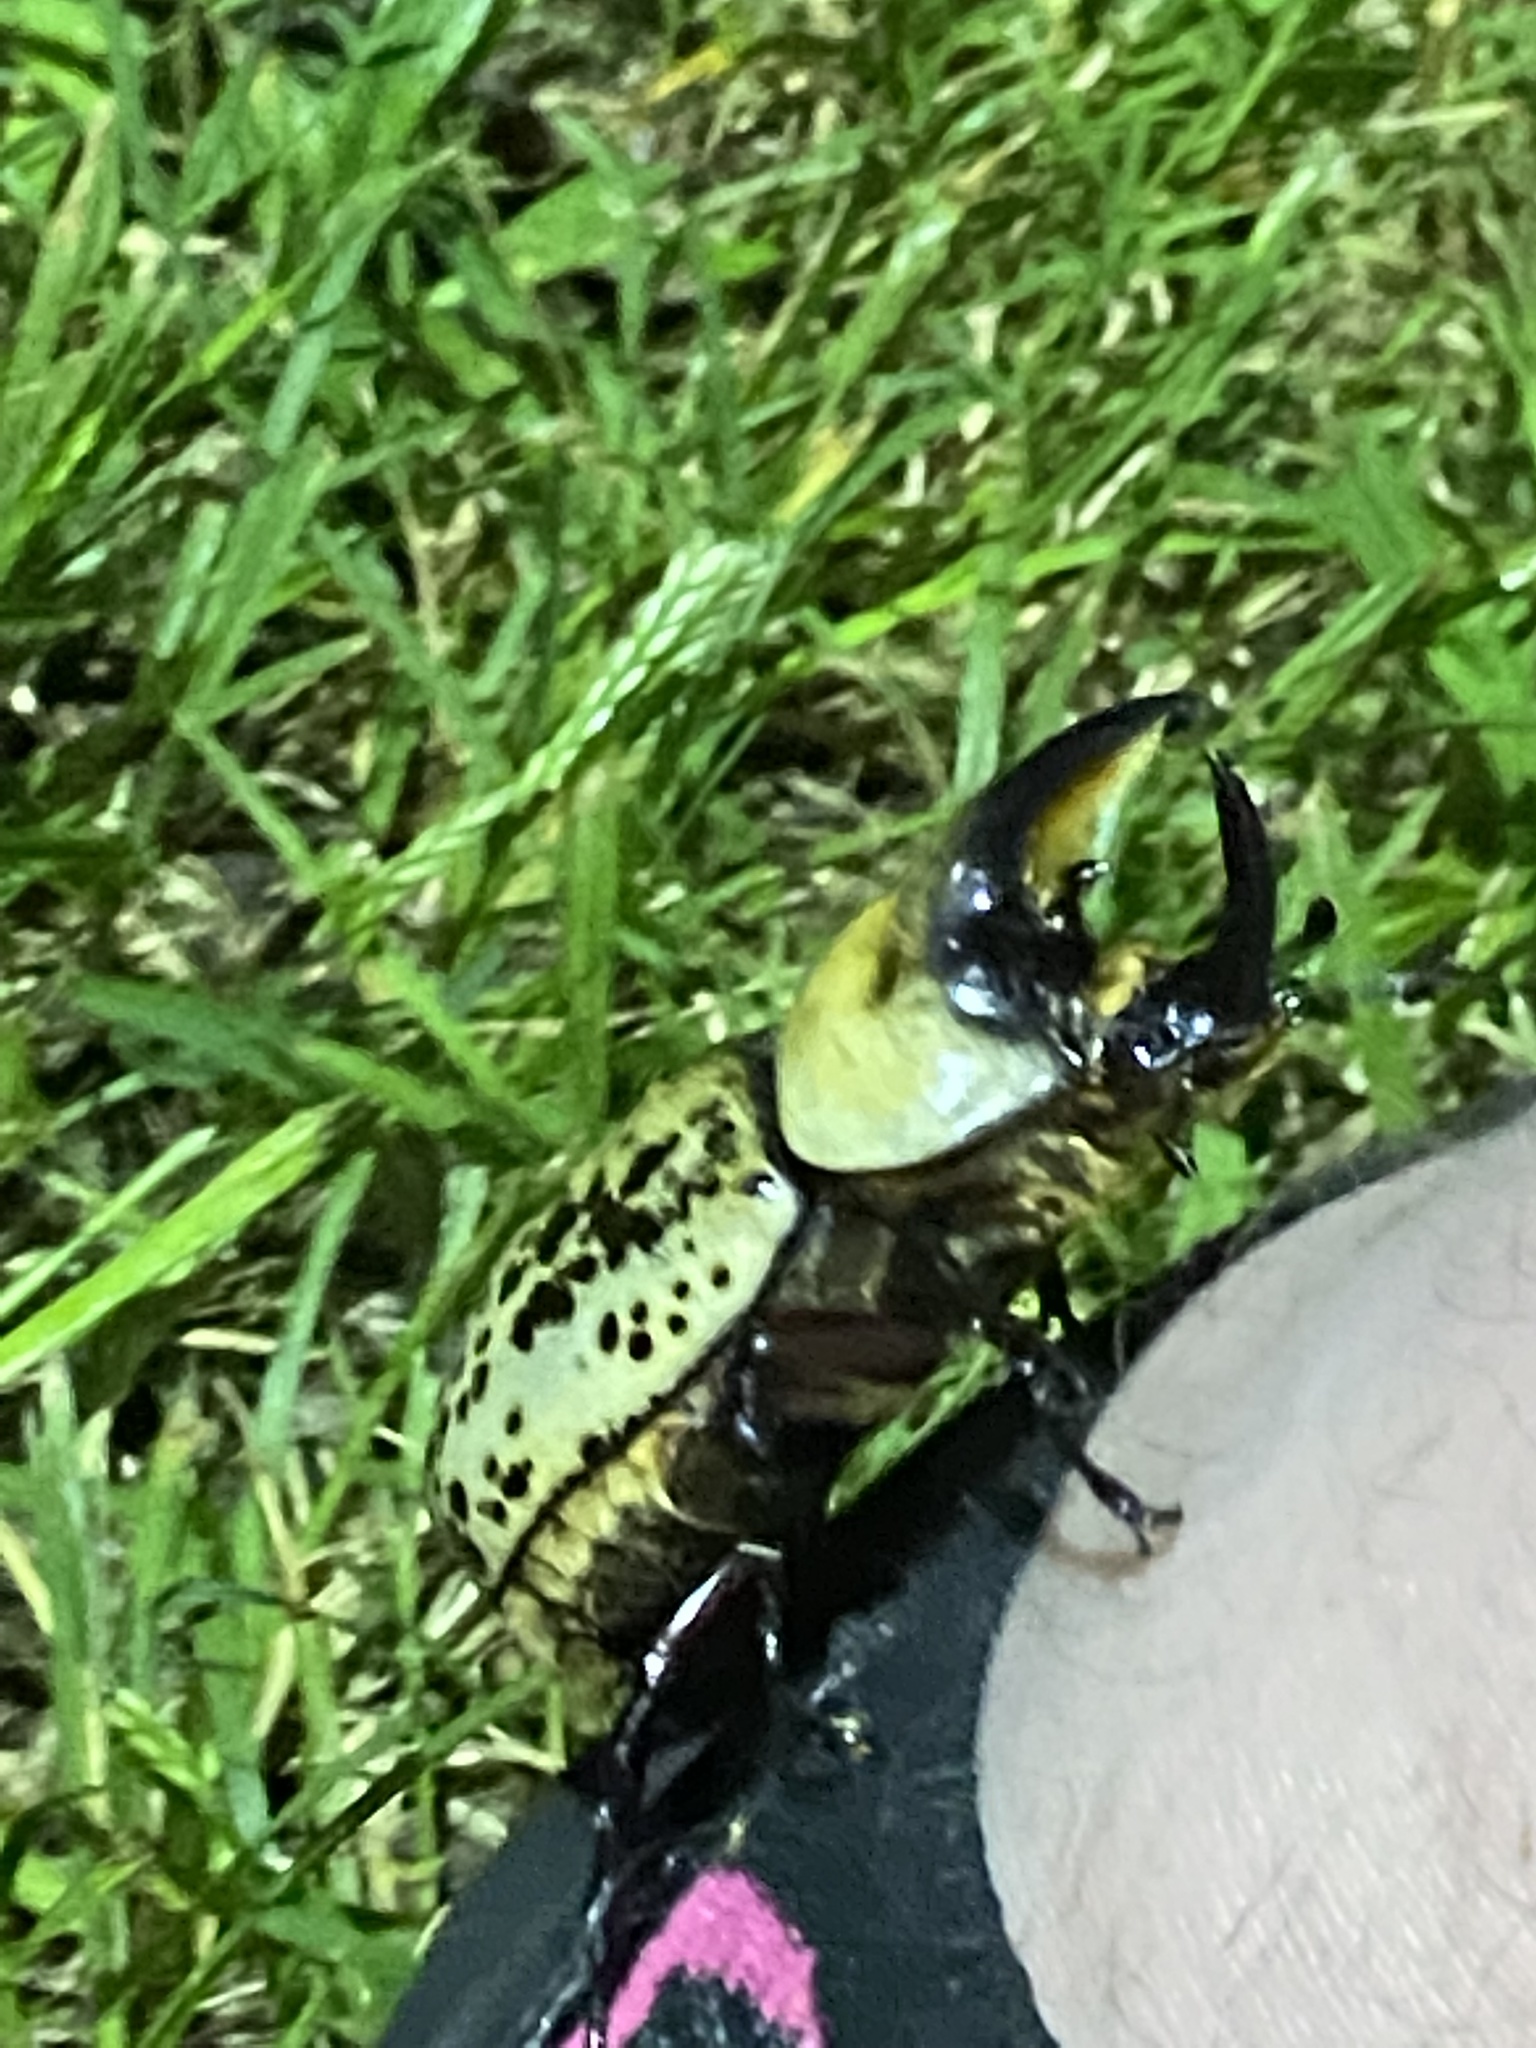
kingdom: Animalia
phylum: Arthropoda
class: Insecta
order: Coleoptera
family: Scarabaeidae
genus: Dynastes
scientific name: Dynastes tityus
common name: Eastern hercules beetle
